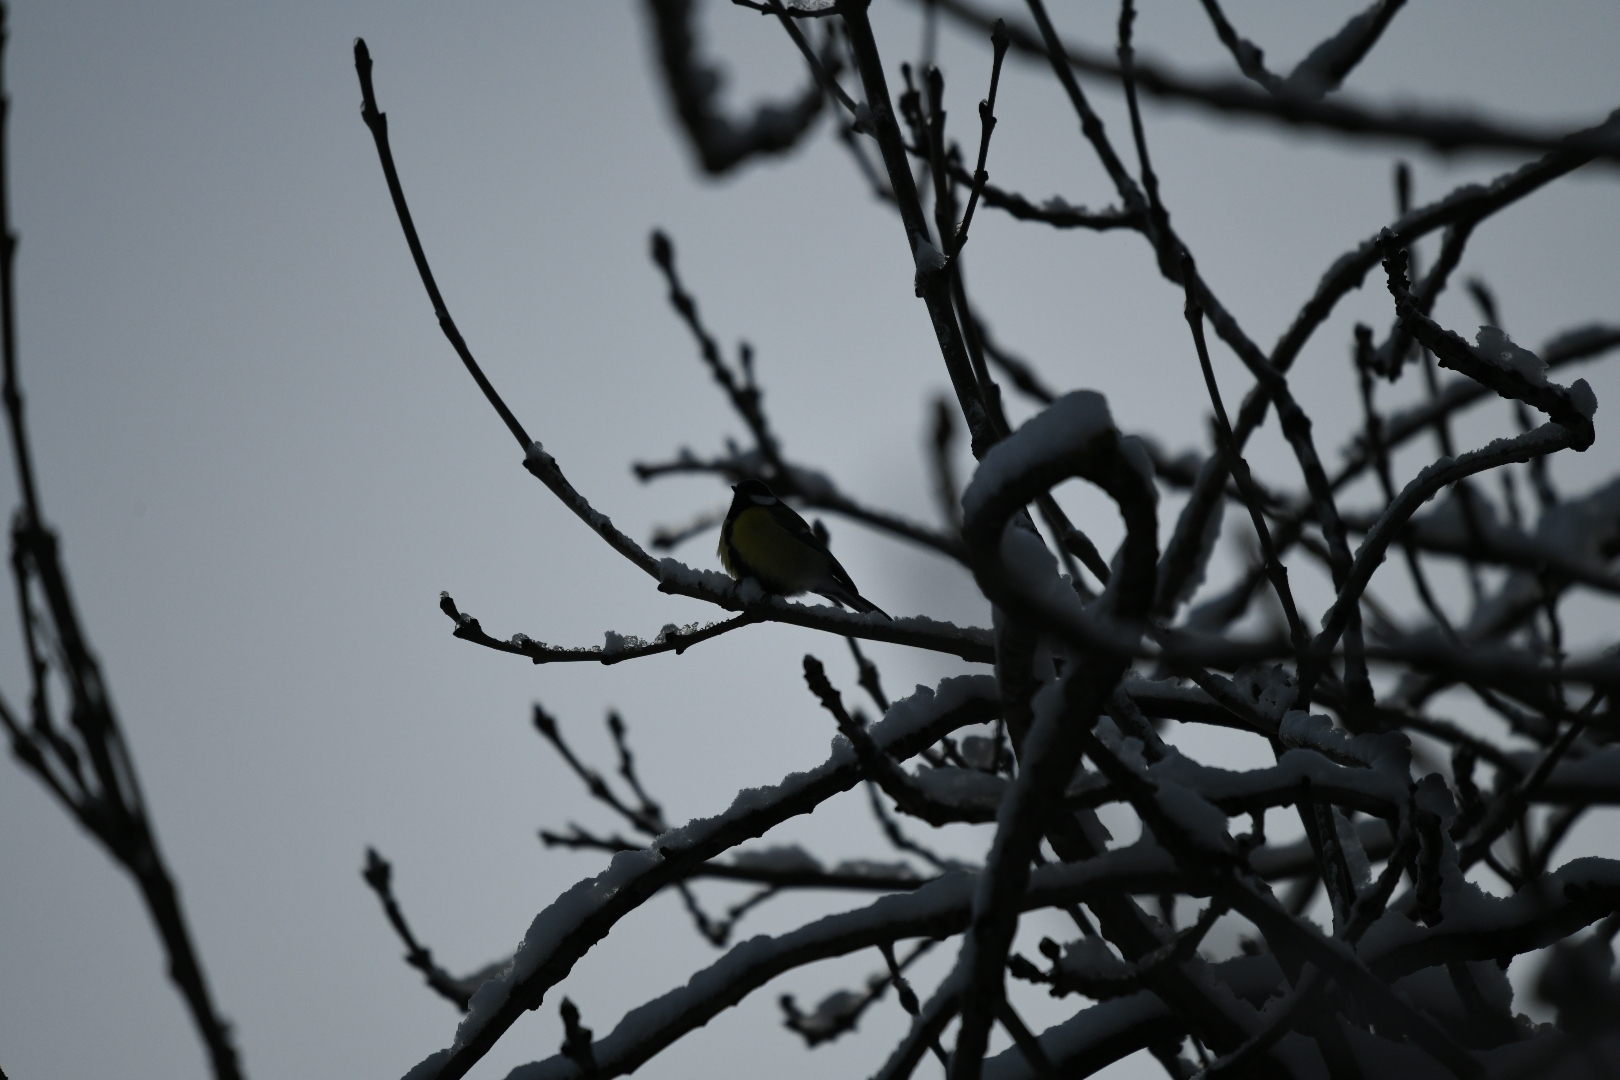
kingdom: Animalia
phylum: Chordata
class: Aves
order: Passeriformes
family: Paridae
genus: Parus
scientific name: Parus major
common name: Great tit
